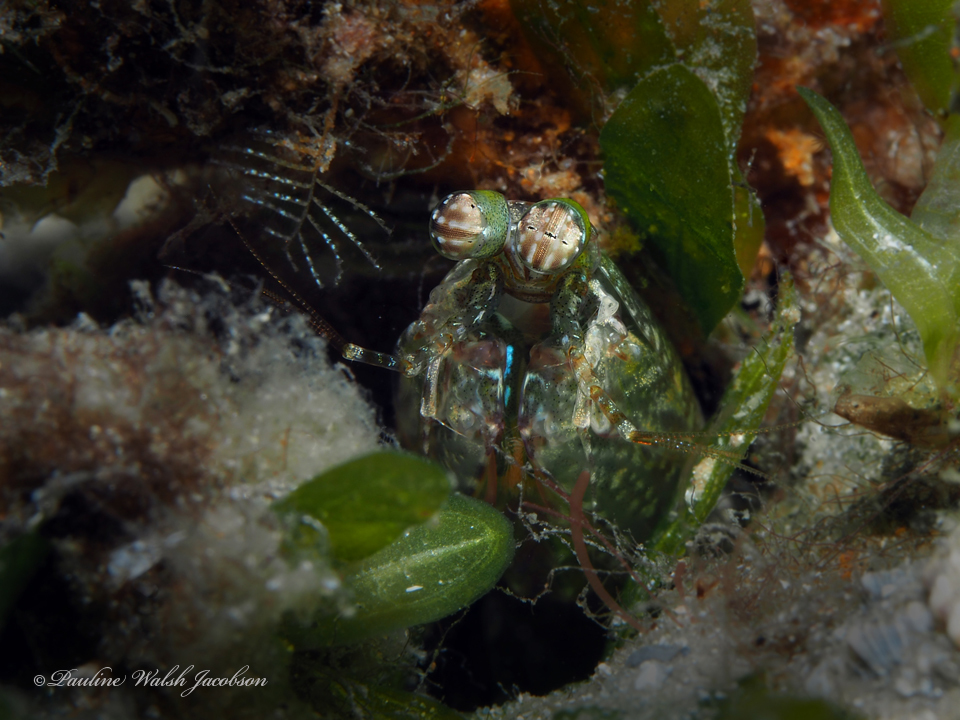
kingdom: Animalia
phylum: Arthropoda
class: Malacostraca
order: Stomatopoda
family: Pseudosquillidae
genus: Pseudosquilla
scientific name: Pseudosquilla ciliata
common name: Ciliated false squilla
